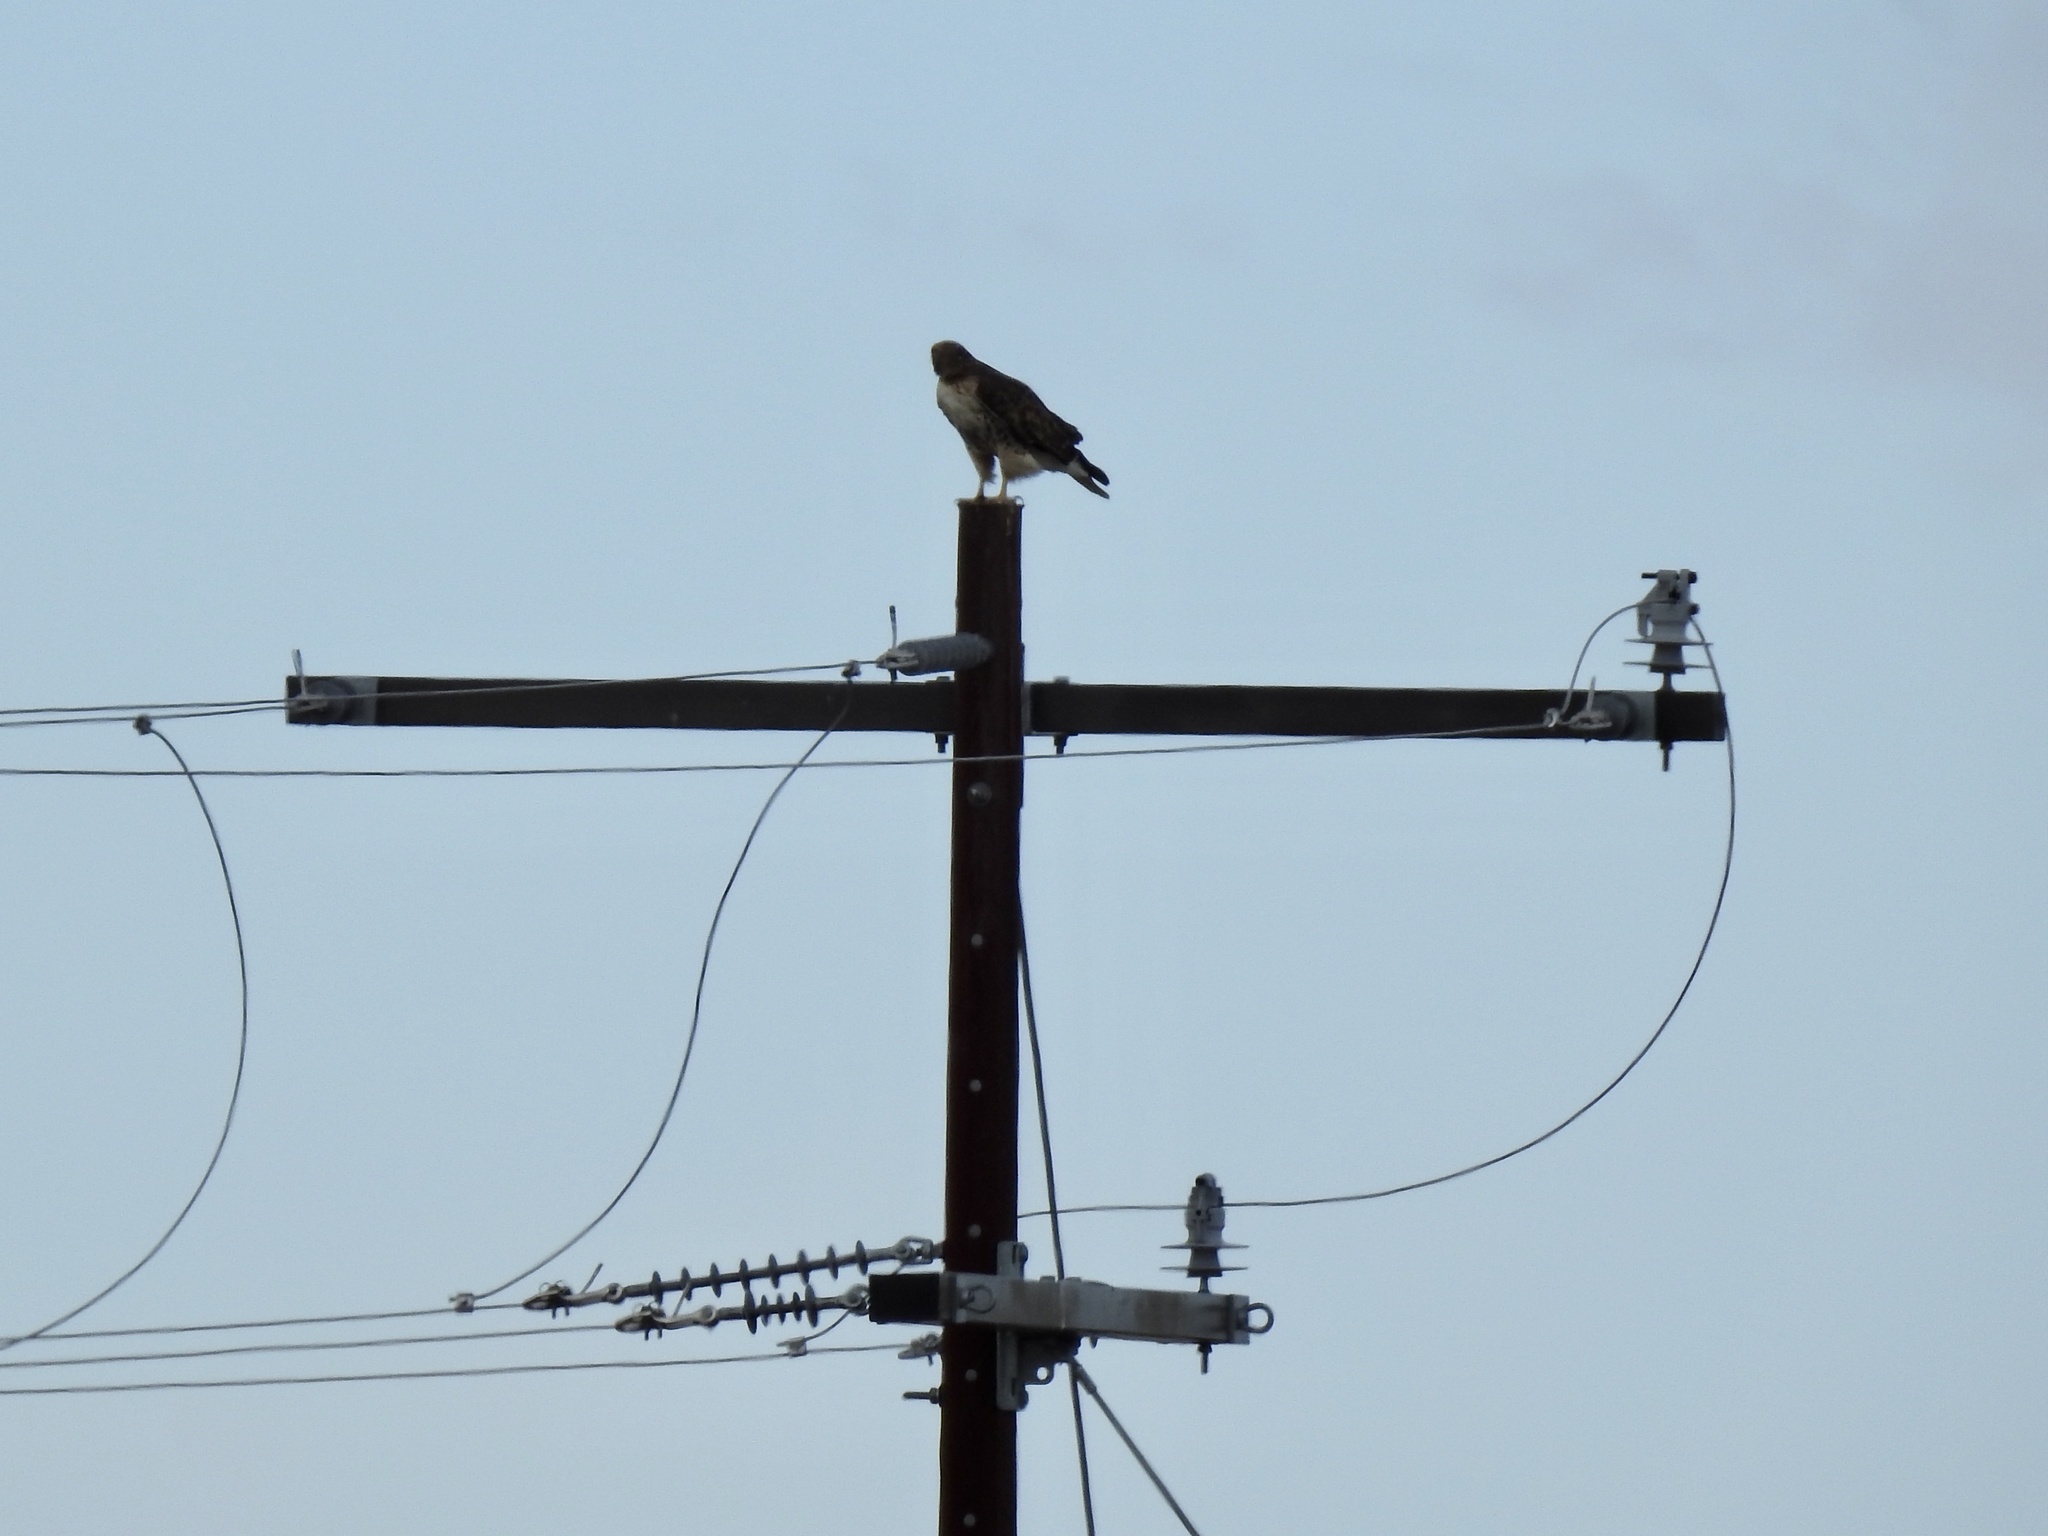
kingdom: Animalia
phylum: Chordata
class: Aves
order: Accipitriformes
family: Accipitridae
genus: Buteo
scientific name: Buteo jamaicensis
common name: Red-tailed hawk
